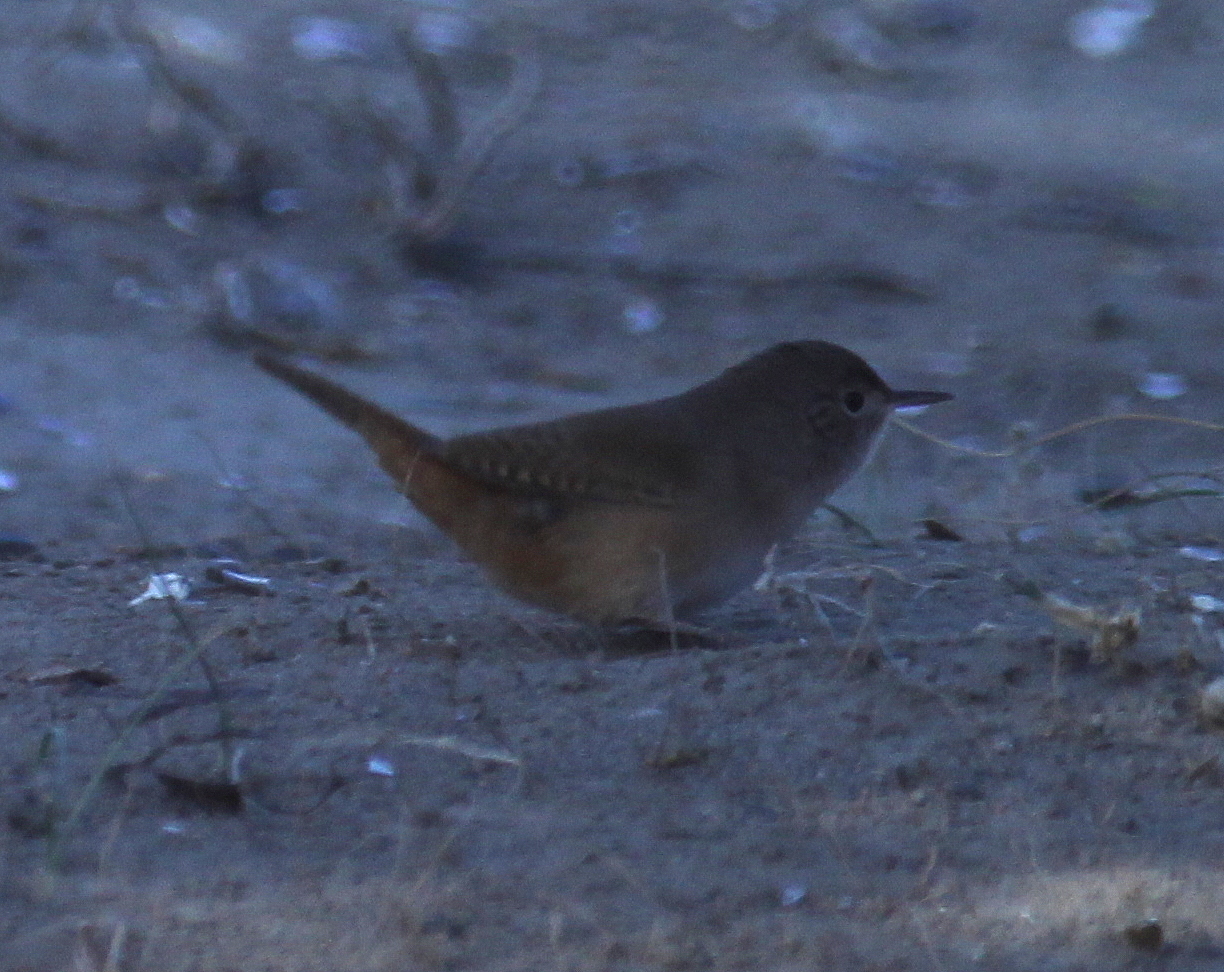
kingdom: Animalia
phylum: Chordata
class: Aves
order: Passeriformes
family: Troglodytidae
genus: Troglodytes
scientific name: Troglodytes aedon
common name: House wren
